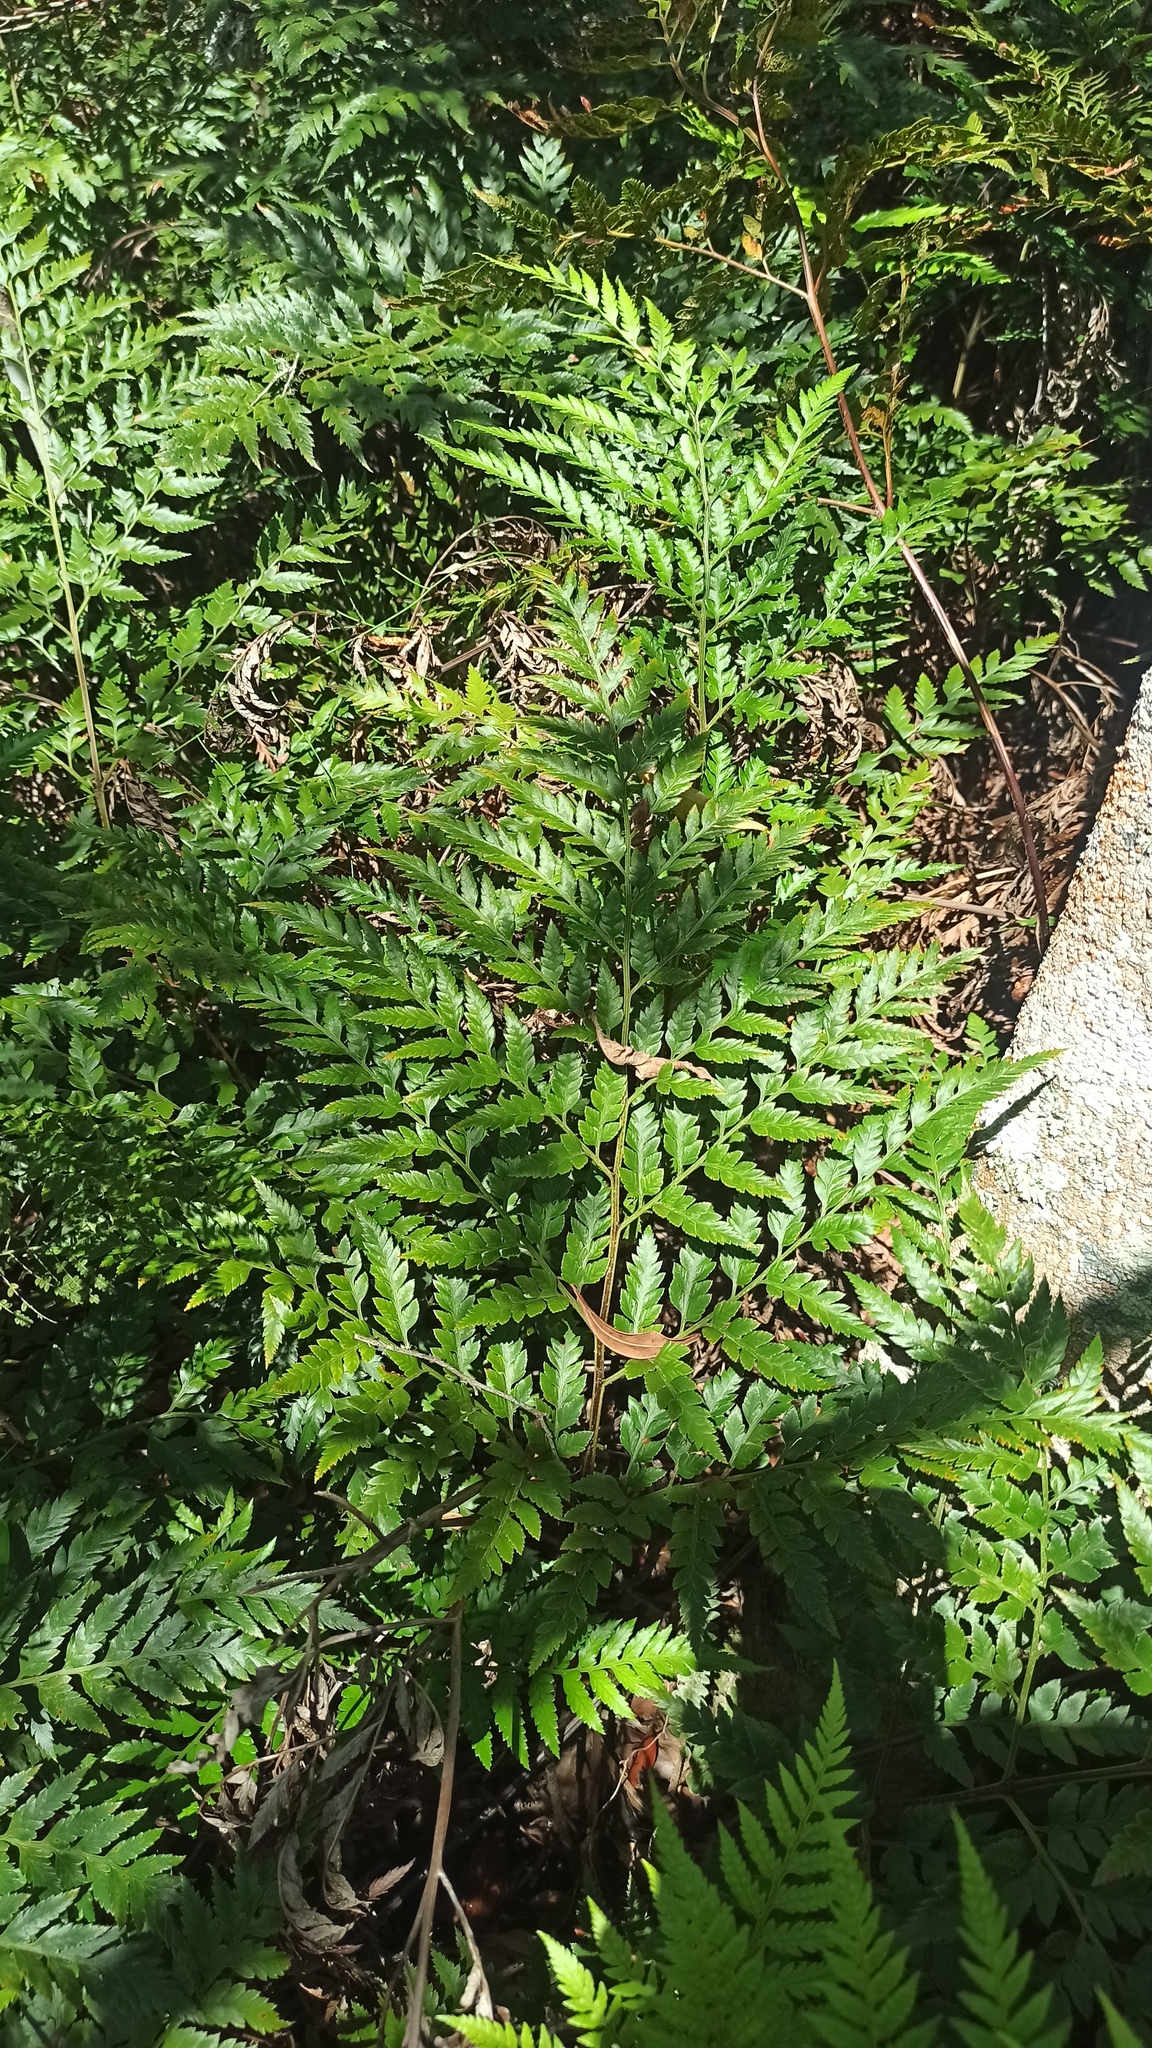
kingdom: Plantae
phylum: Tracheophyta
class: Polypodiopsida
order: Polypodiales
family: Dryopteridaceae
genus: Rumohra
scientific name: Rumohra adiantiformis
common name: Leather fern
